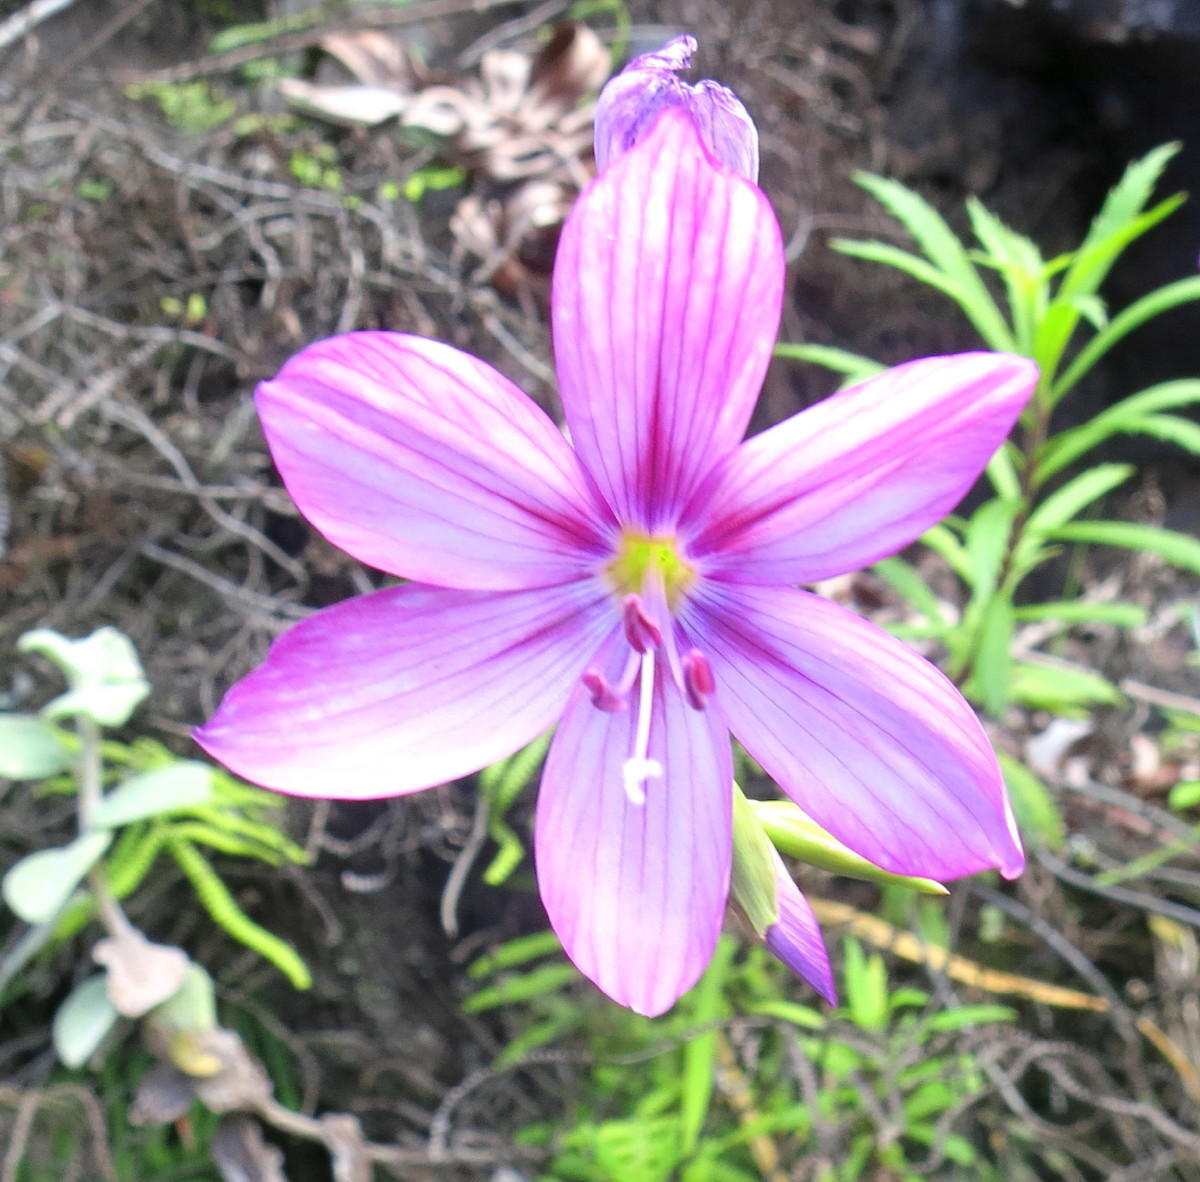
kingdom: Plantae
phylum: Tracheophyta
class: Liliopsida
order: Asparagales
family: Iridaceae
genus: Geissorhiza
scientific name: Geissorhiza outeniquensis
